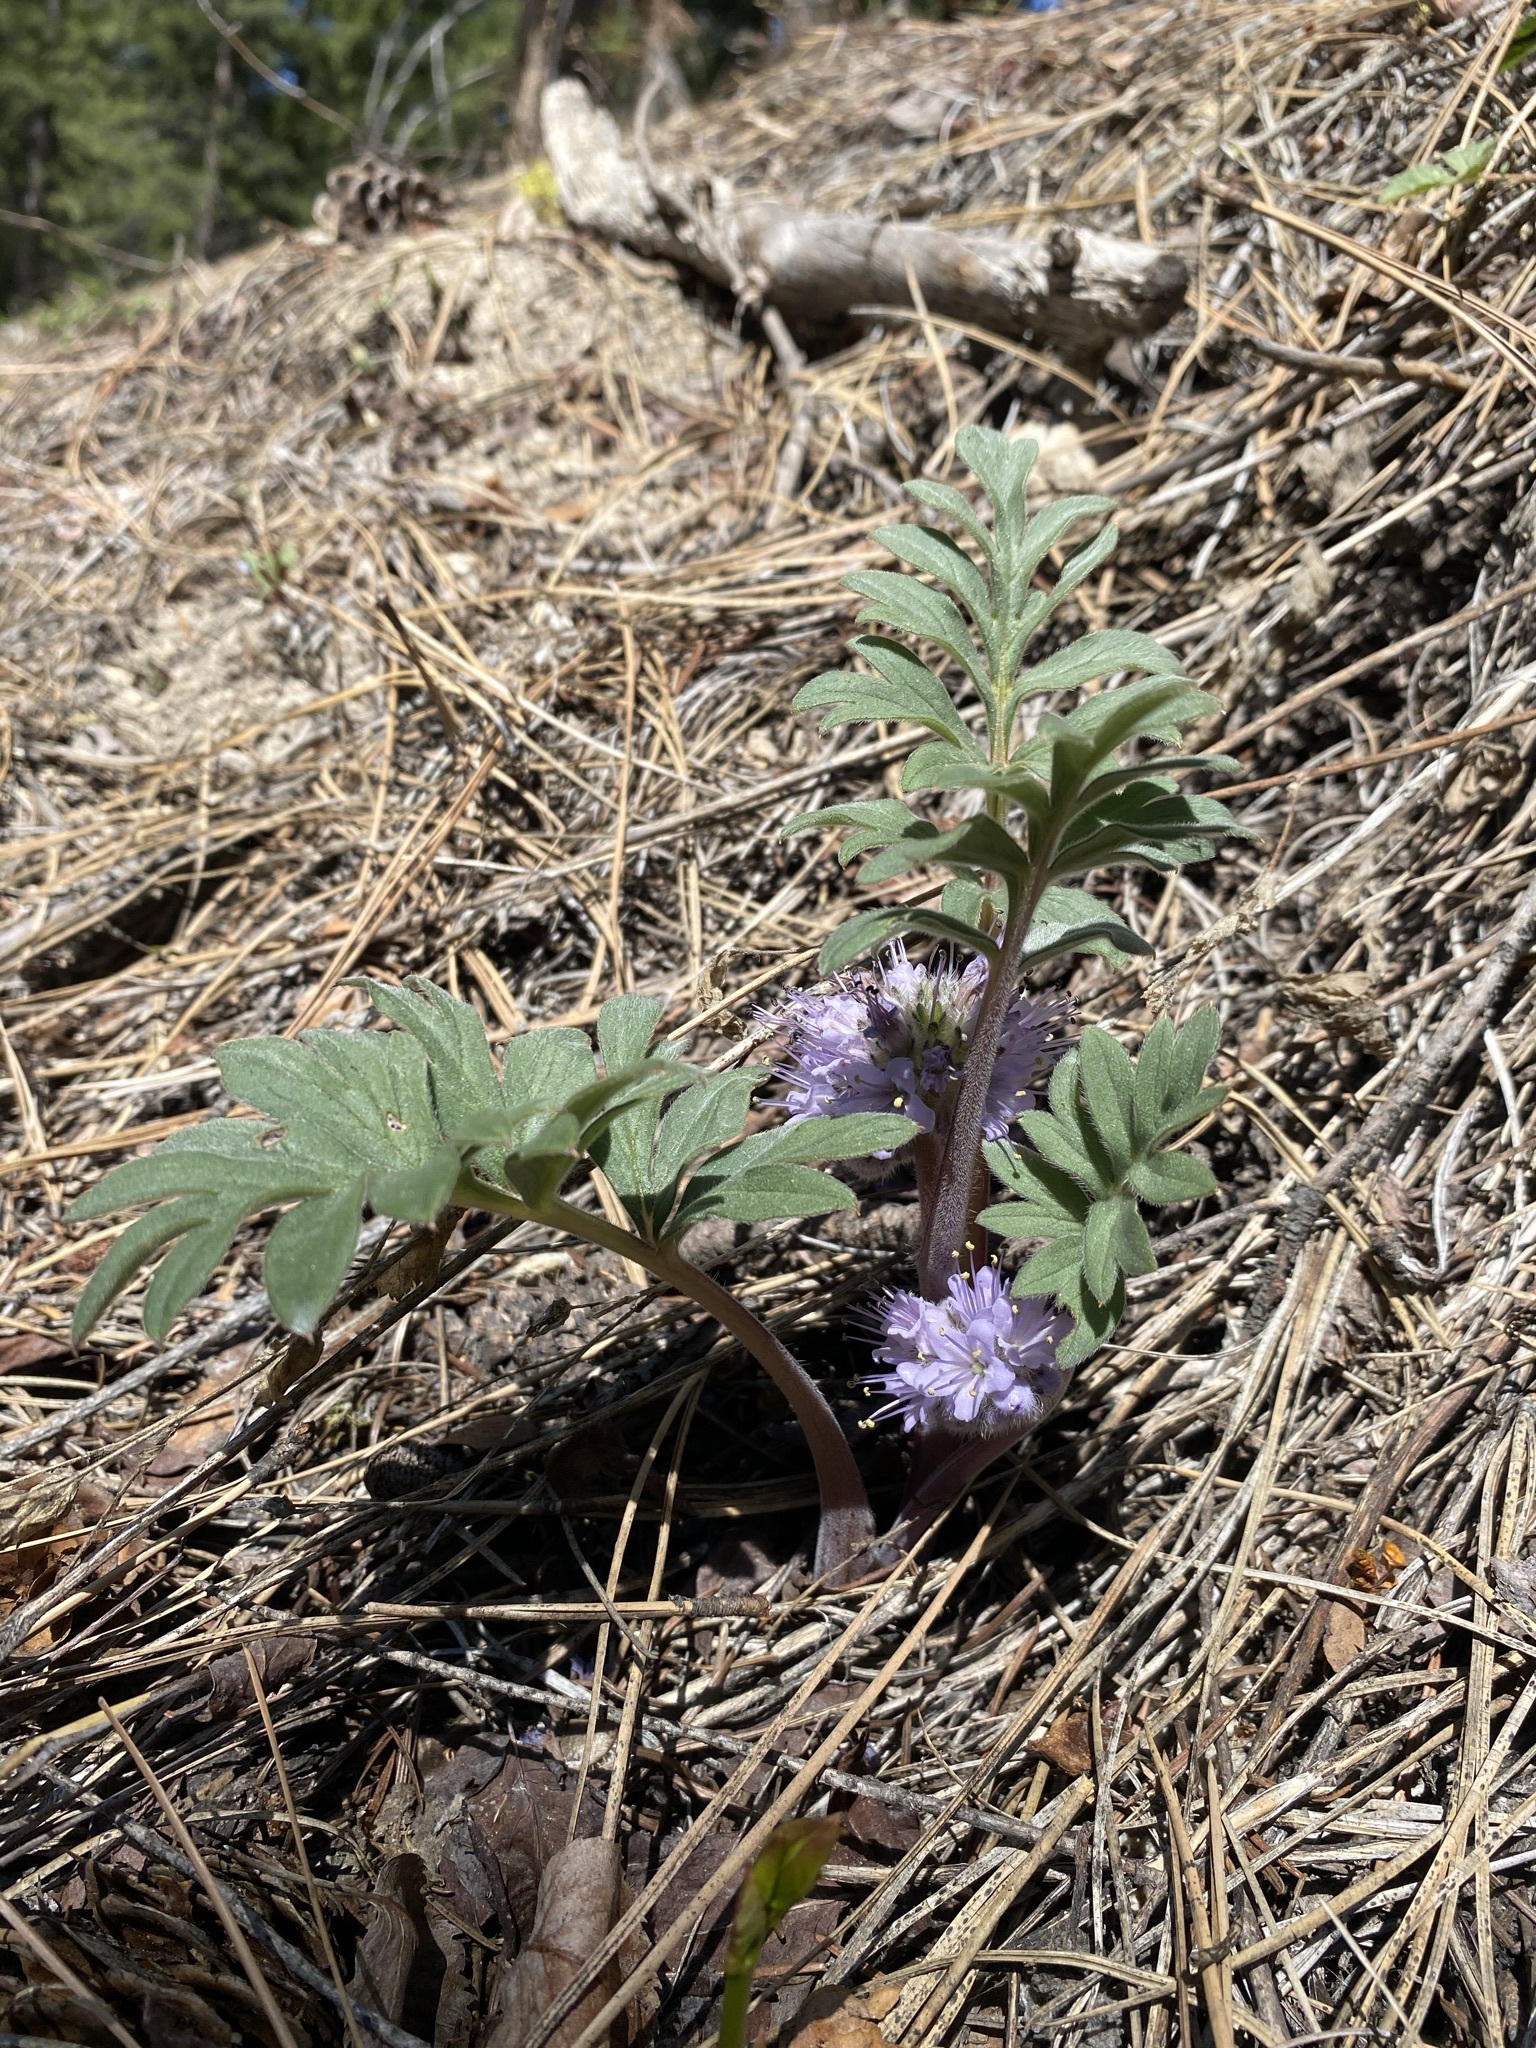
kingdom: Plantae
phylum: Tracheophyta
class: Magnoliopsida
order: Boraginales
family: Hydrophyllaceae
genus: Hydrophyllum
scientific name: Hydrophyllum capitatum
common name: Woollen-breeches
